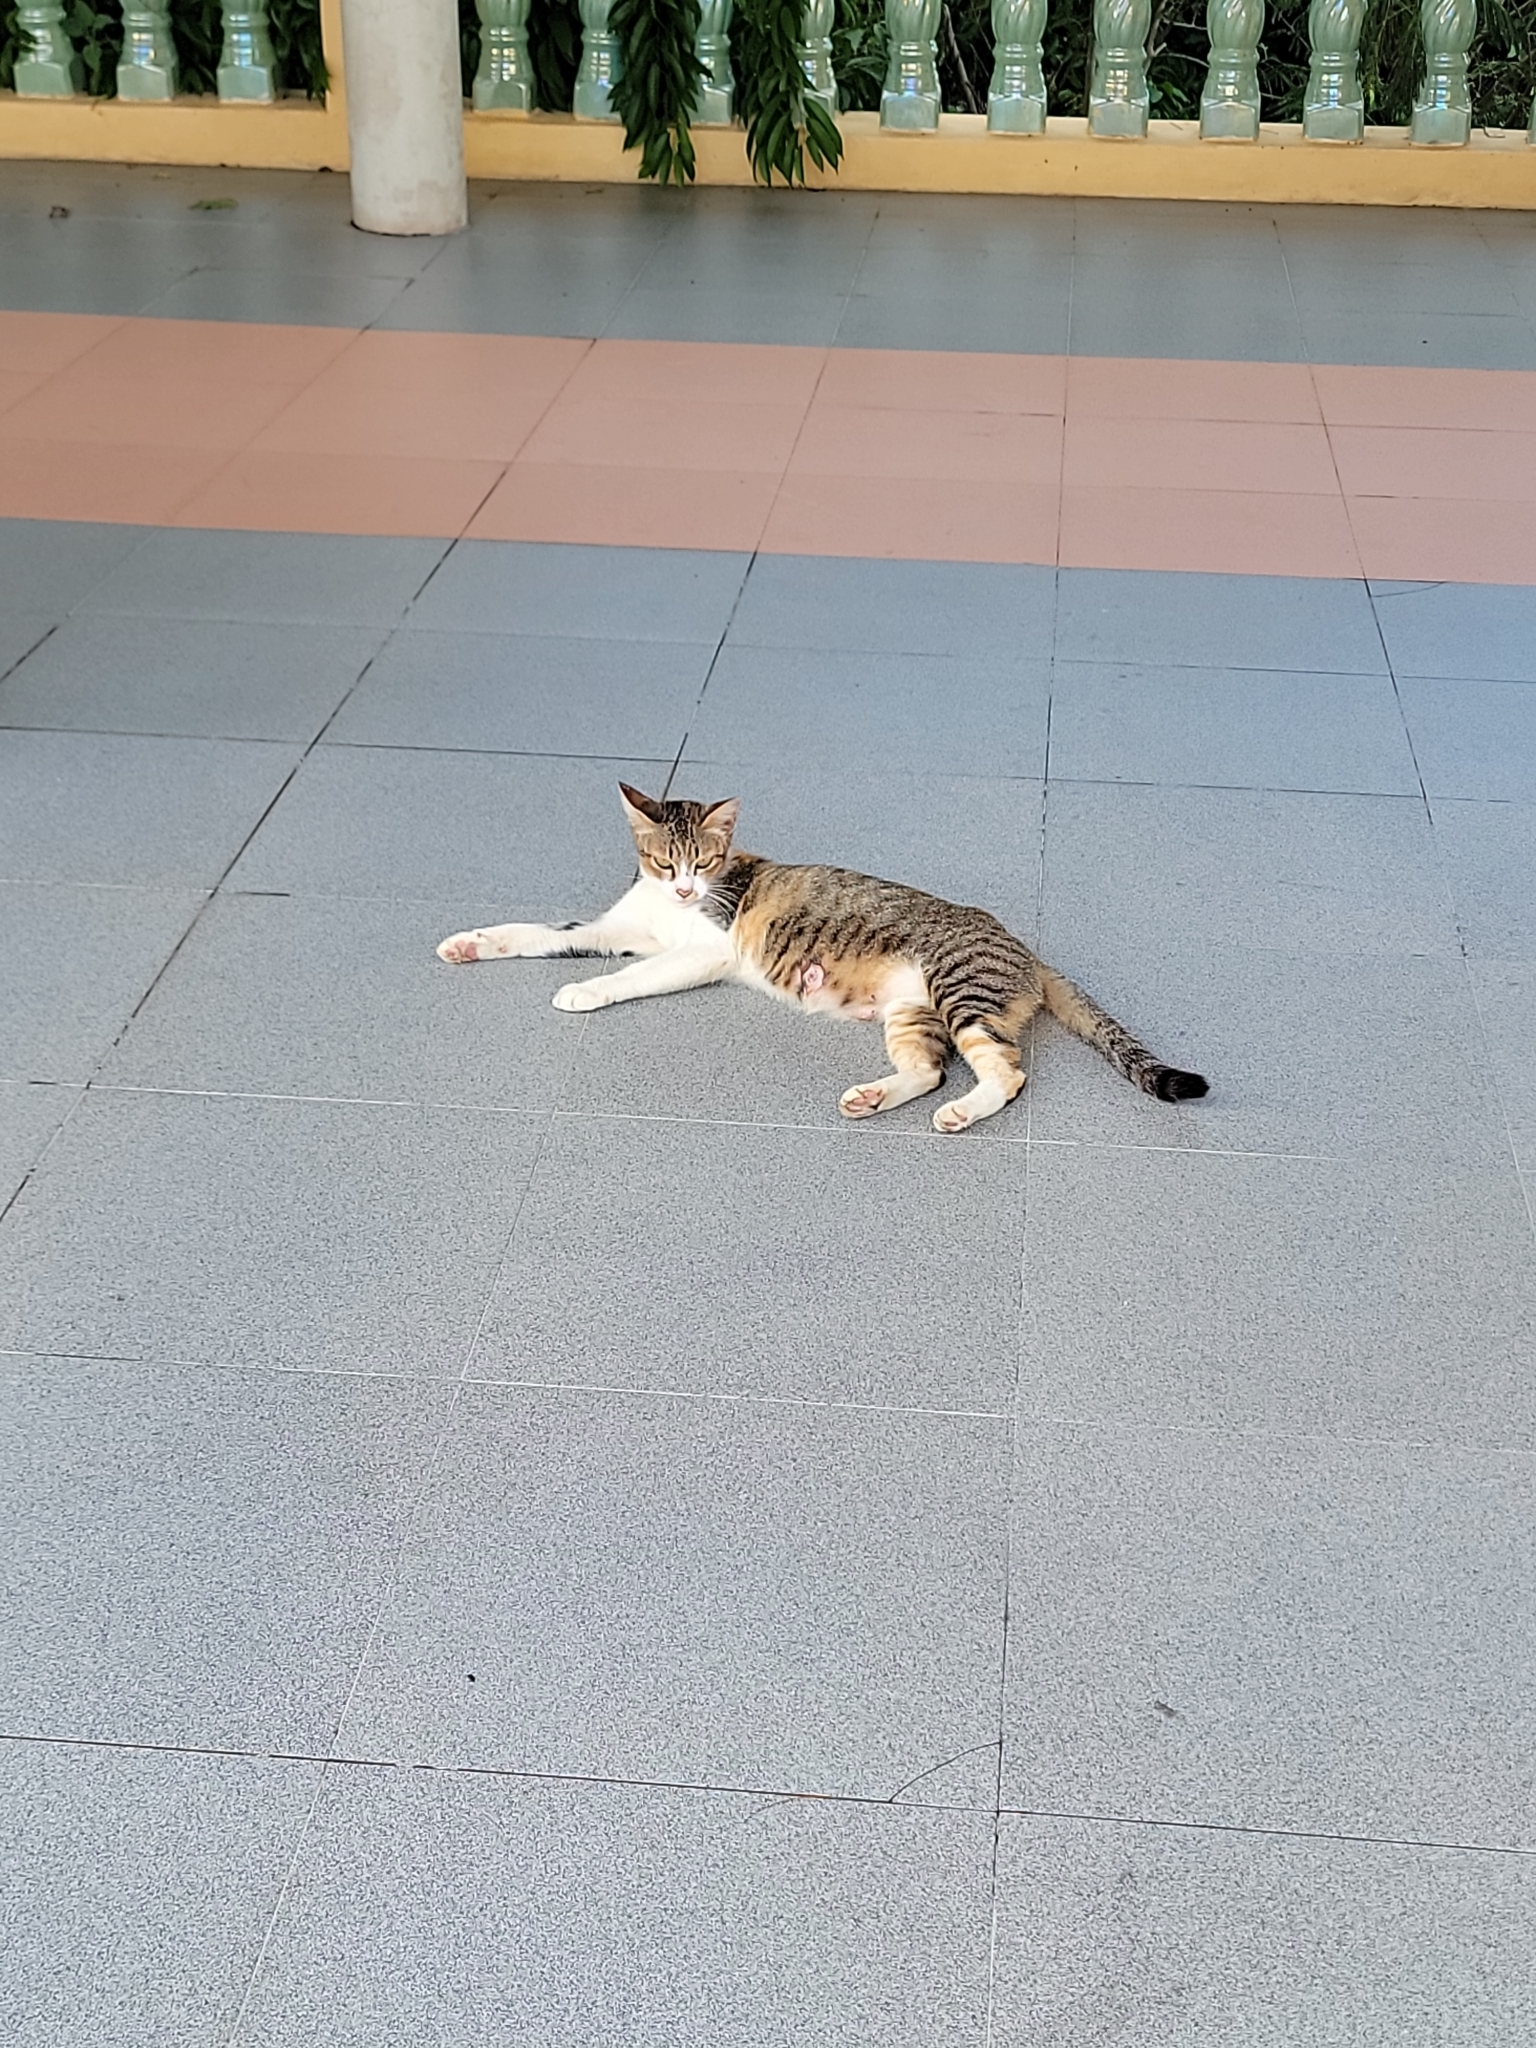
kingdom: Animalia
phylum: Chordata
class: Mammalia
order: Carnivora
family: Felidae
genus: Felis
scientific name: Felis catus
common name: Domestic cat
